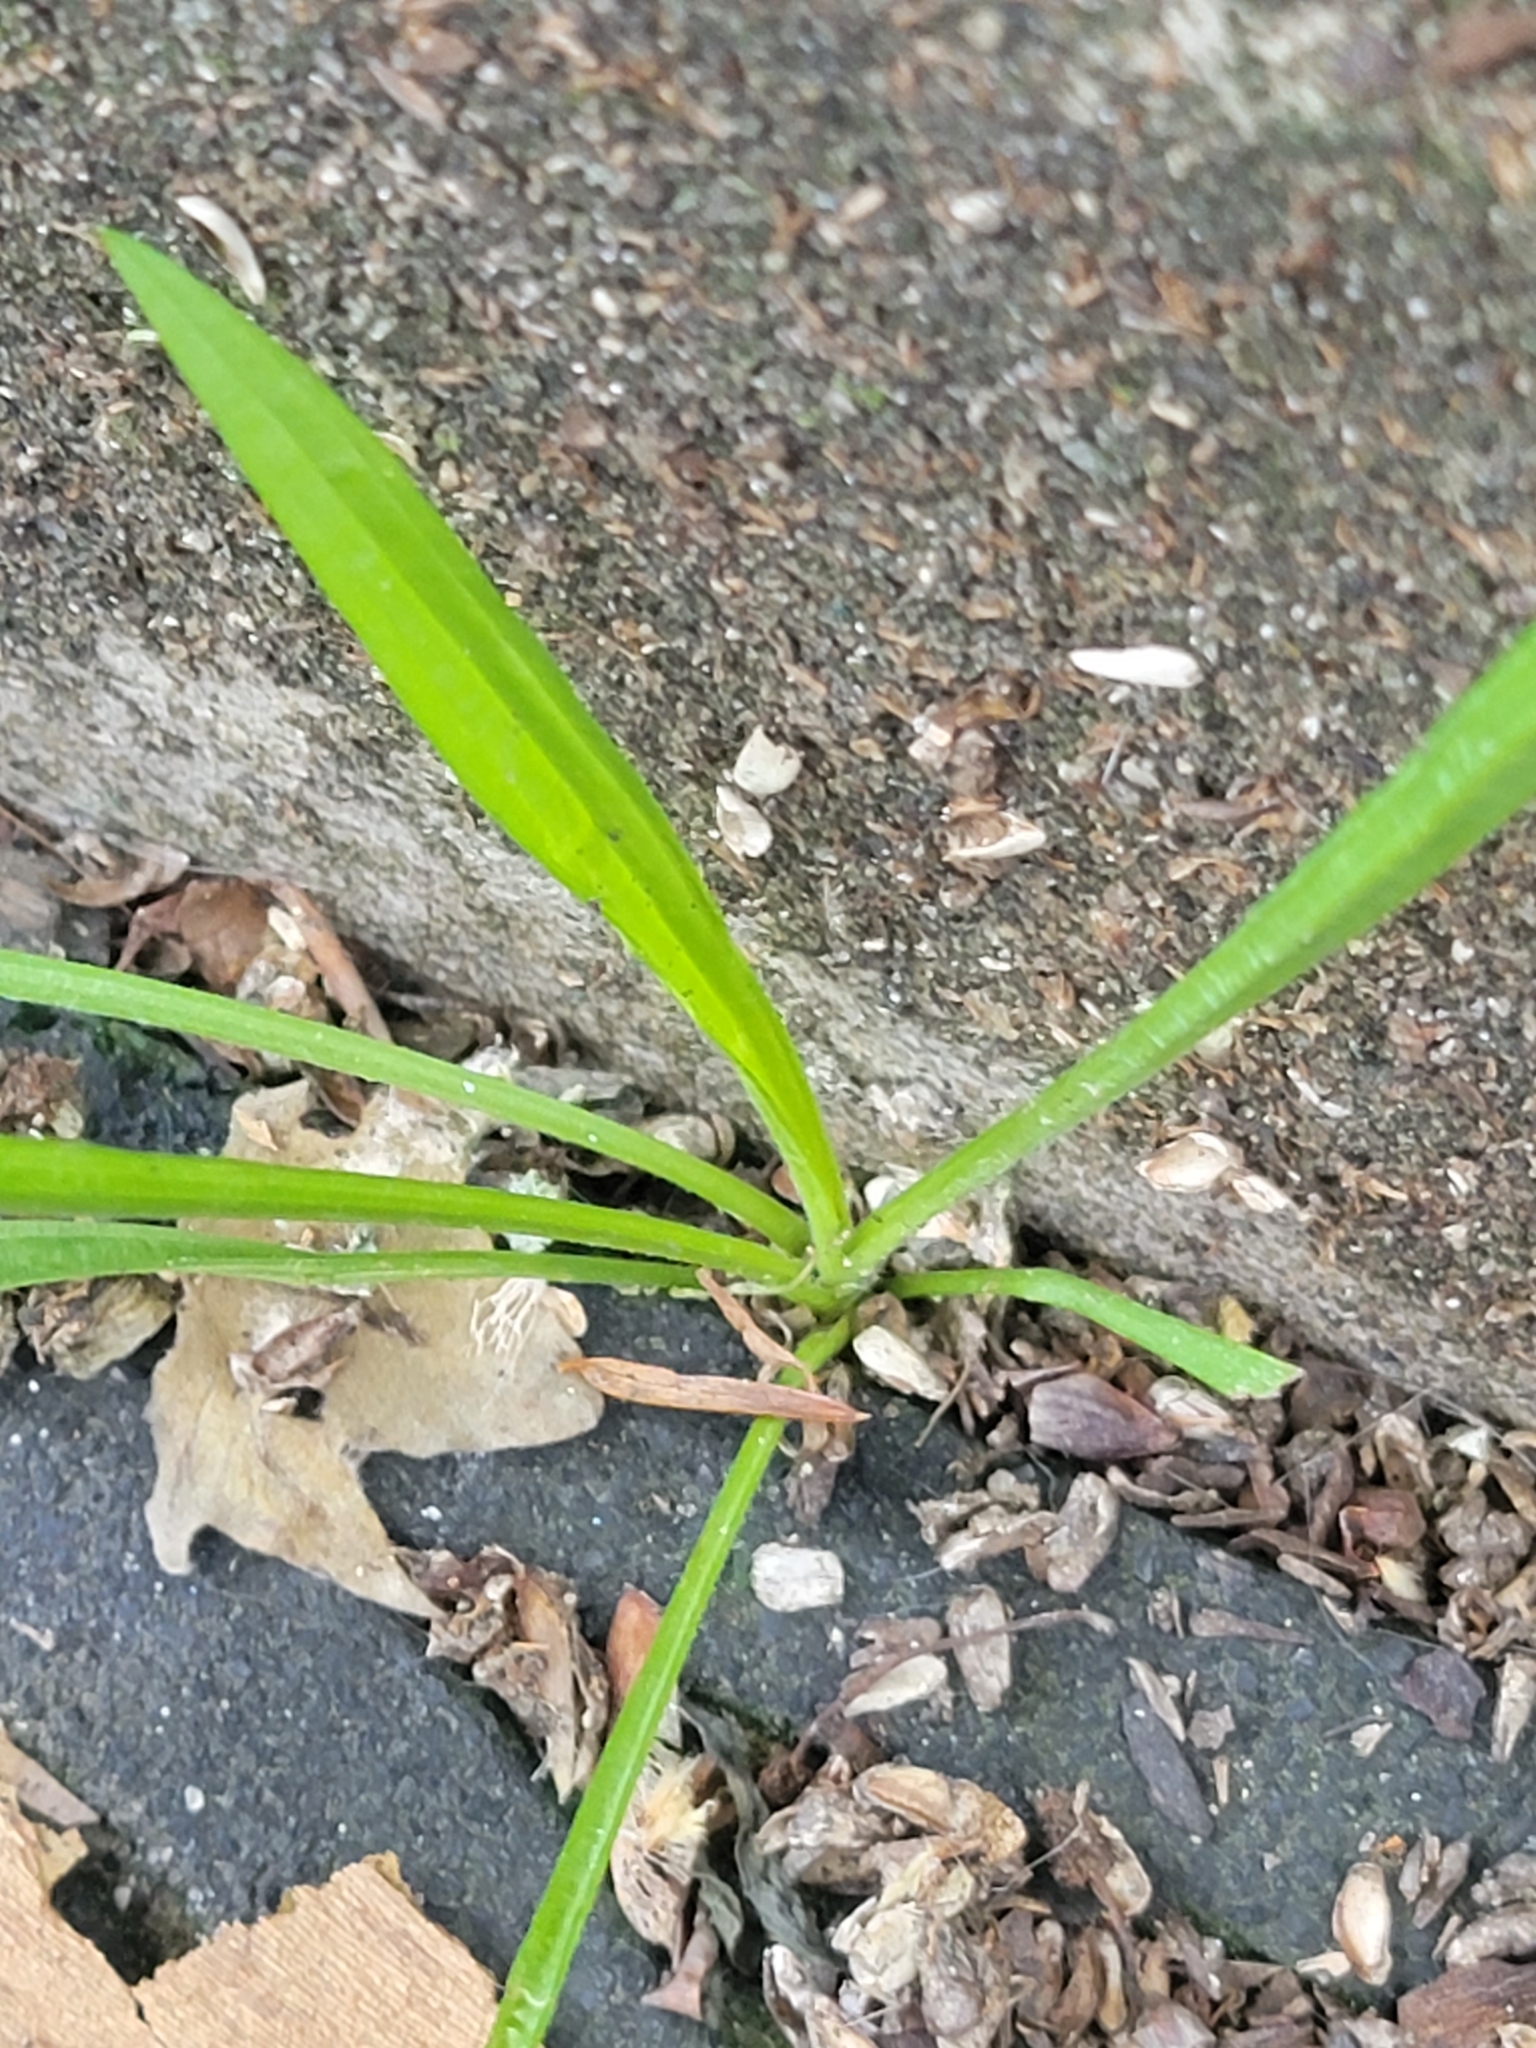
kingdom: Plantae
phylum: Tracheophyta
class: Magnoliopsida
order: Lamiales
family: Plantaginaceae
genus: Plantago
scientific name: Plantago lanceolata
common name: Ribwort plantain
